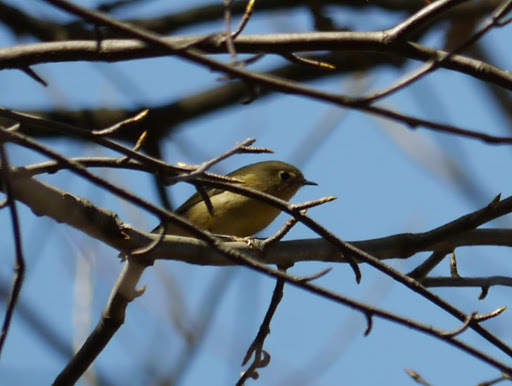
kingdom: Animalia
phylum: Chordata
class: Aves
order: Passeriformes
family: Regulidae
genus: Regulus
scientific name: Regulus calendula
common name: Ruby-crowned kinglet
